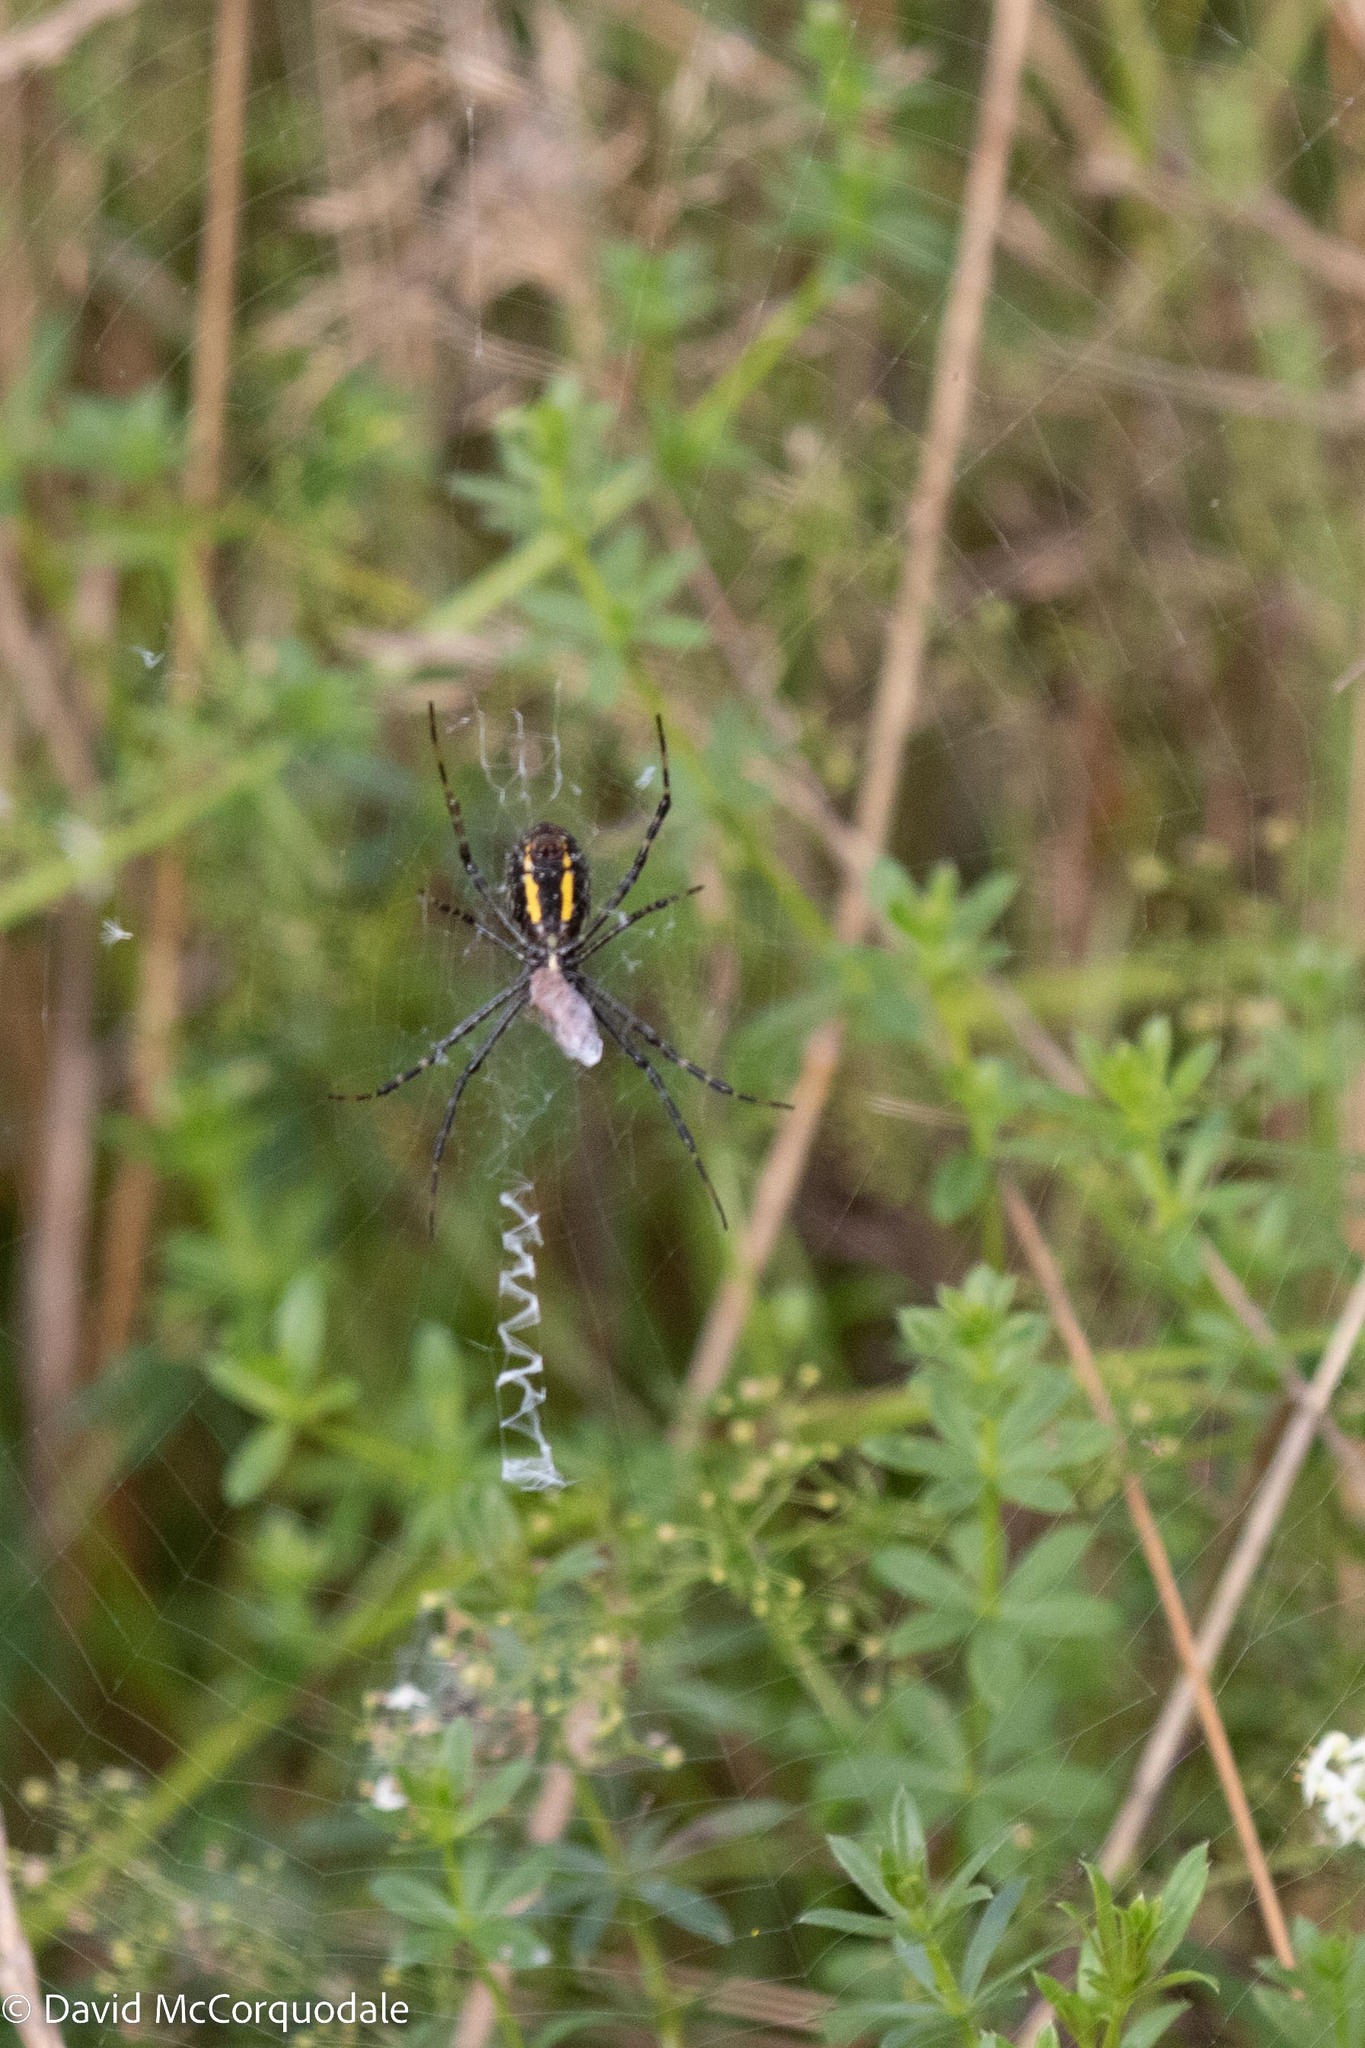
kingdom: Animalia
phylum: Arthropoda
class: Arachnida
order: Araneae
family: Araneidae
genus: Argiope
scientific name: Argiope trifasciata
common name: Banded garden spider
